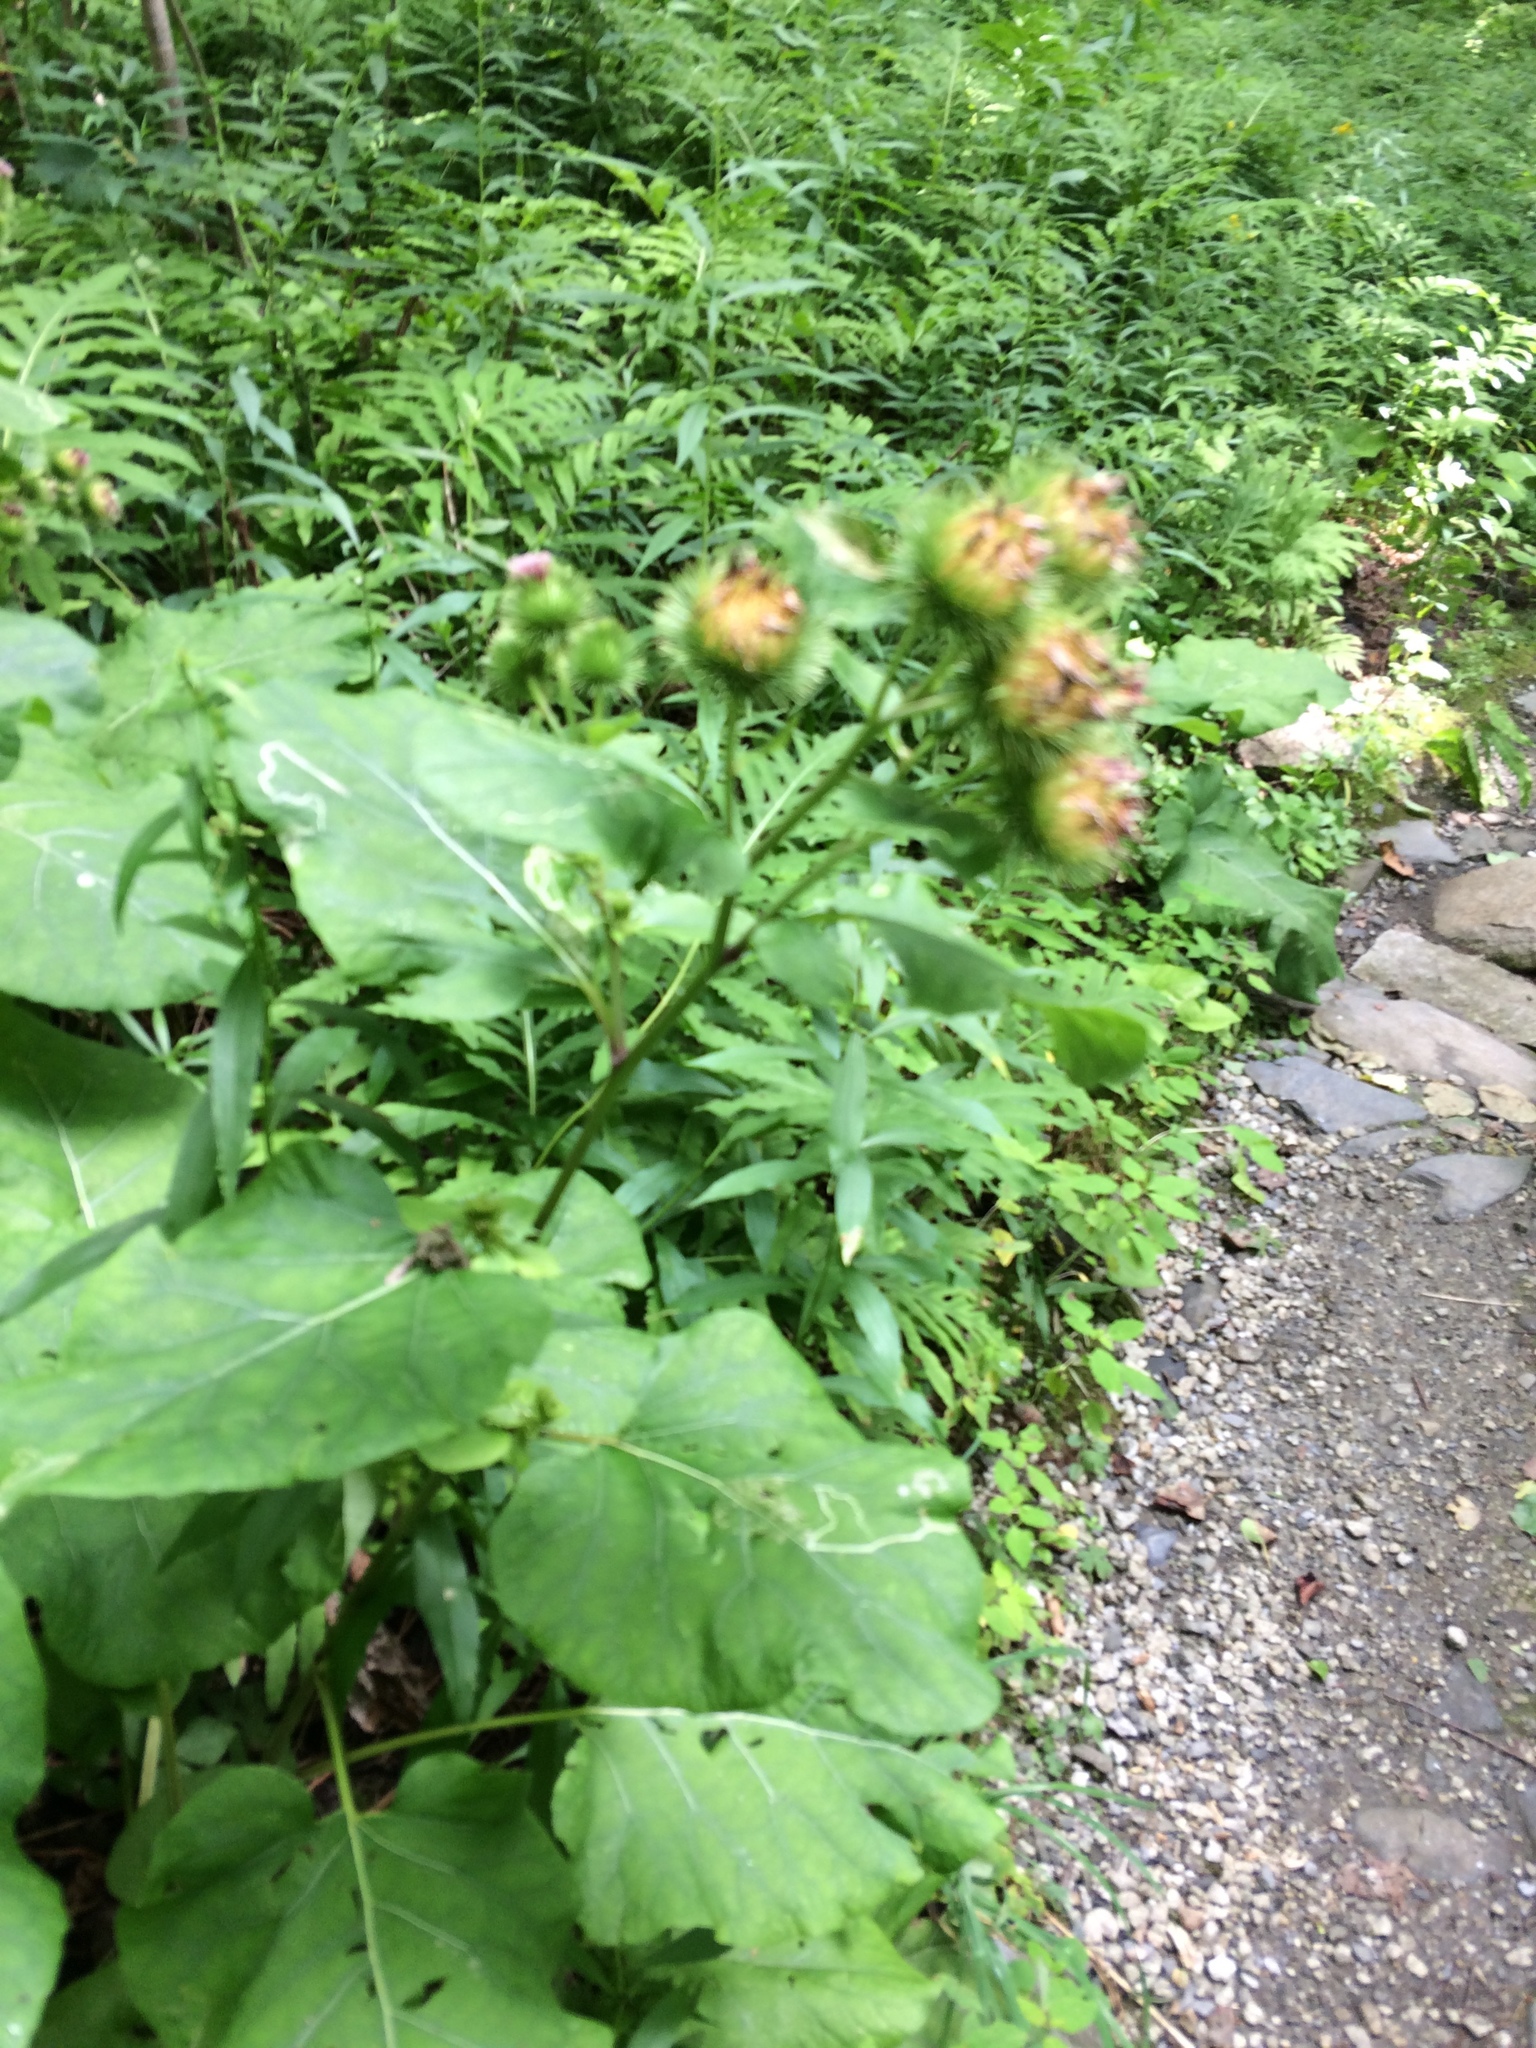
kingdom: Plantae
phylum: Tracheophyta
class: Magnoliopsida
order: Asterales
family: Asteraceae
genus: Arctium
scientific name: Arctium lappa
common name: Greater burdock
